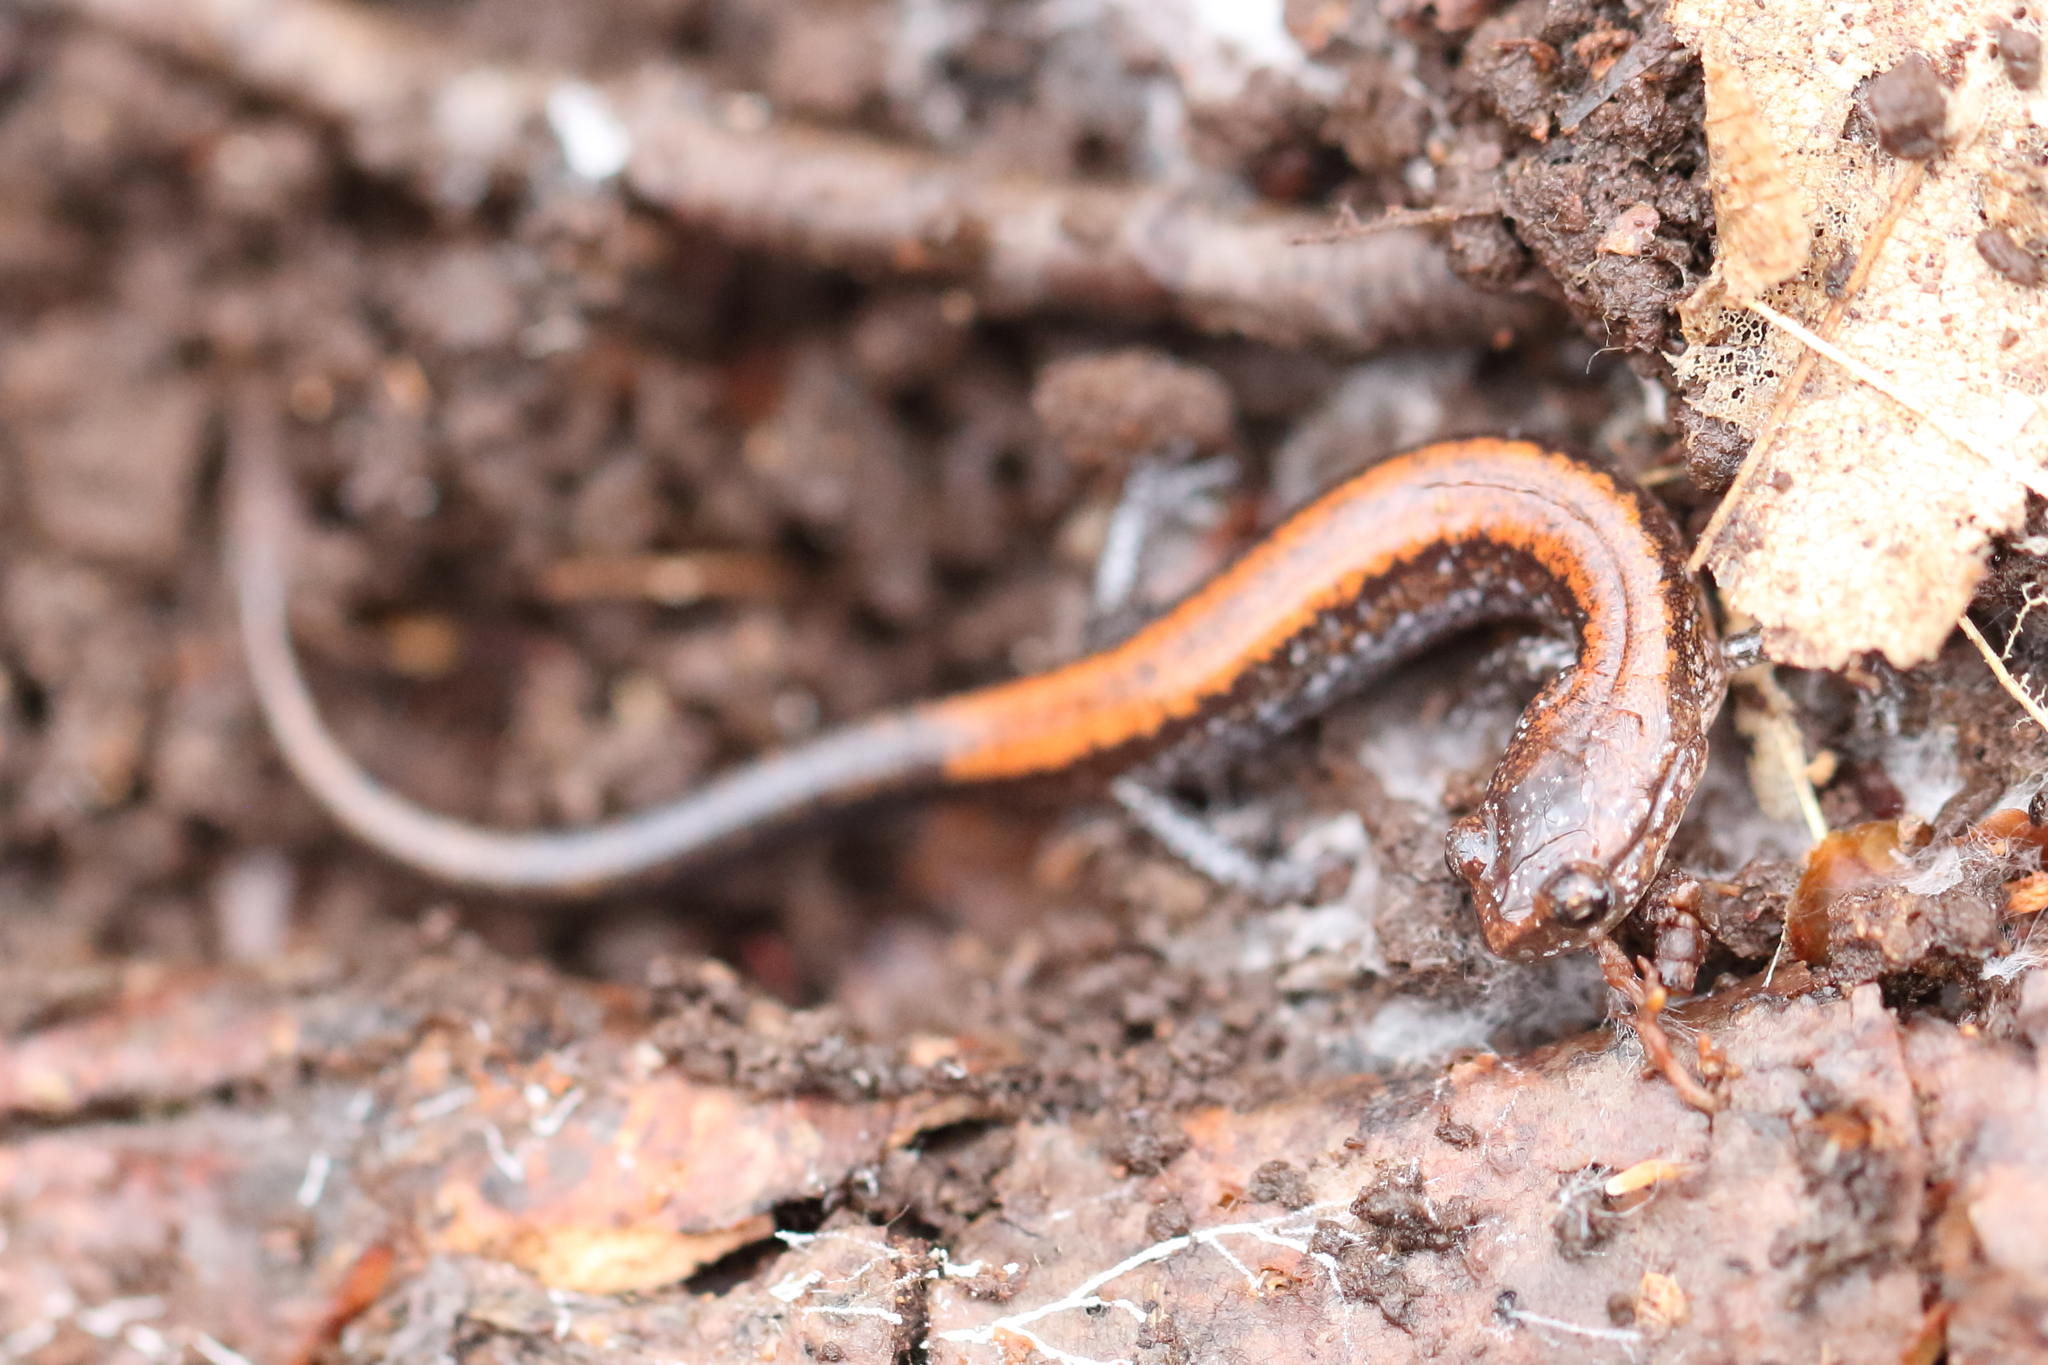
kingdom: Animalia
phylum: Chordata
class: Amphibia
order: Caudata
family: Plethodontidae
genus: Plethodon
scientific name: Plethodon cinereus
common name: Redback salamander
